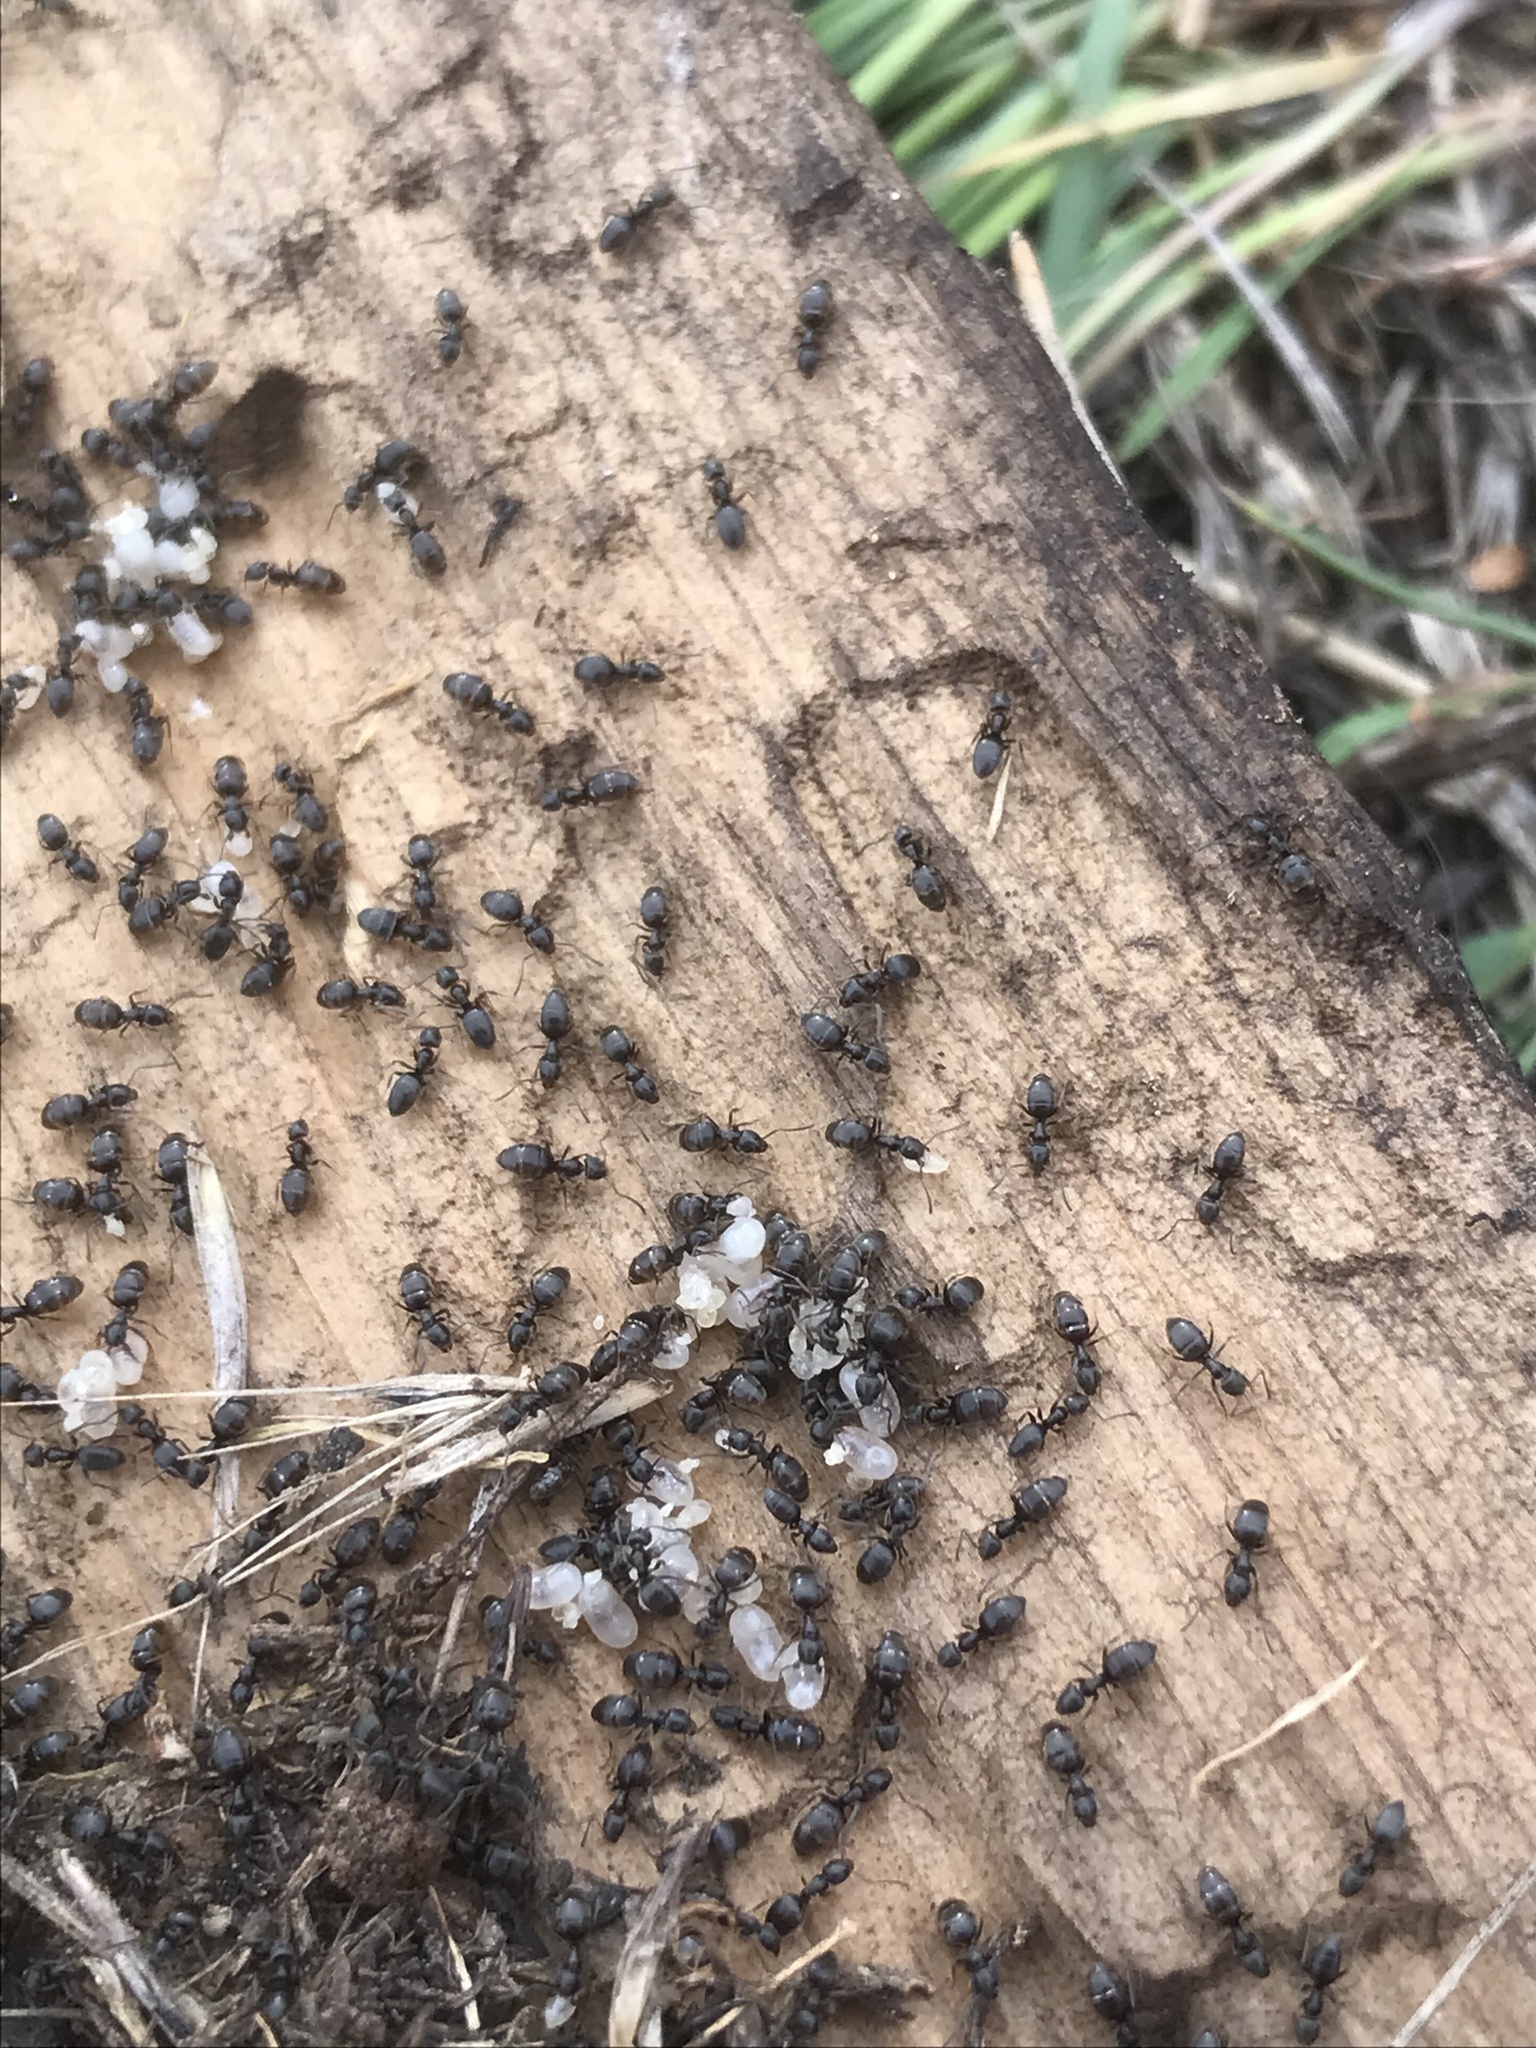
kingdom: Animalia
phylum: Arthropoda
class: Insecta
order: Hymenoptera
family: Formicidae
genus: Tapinoma
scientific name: Tapinoma sessile
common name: Odorous house ant
